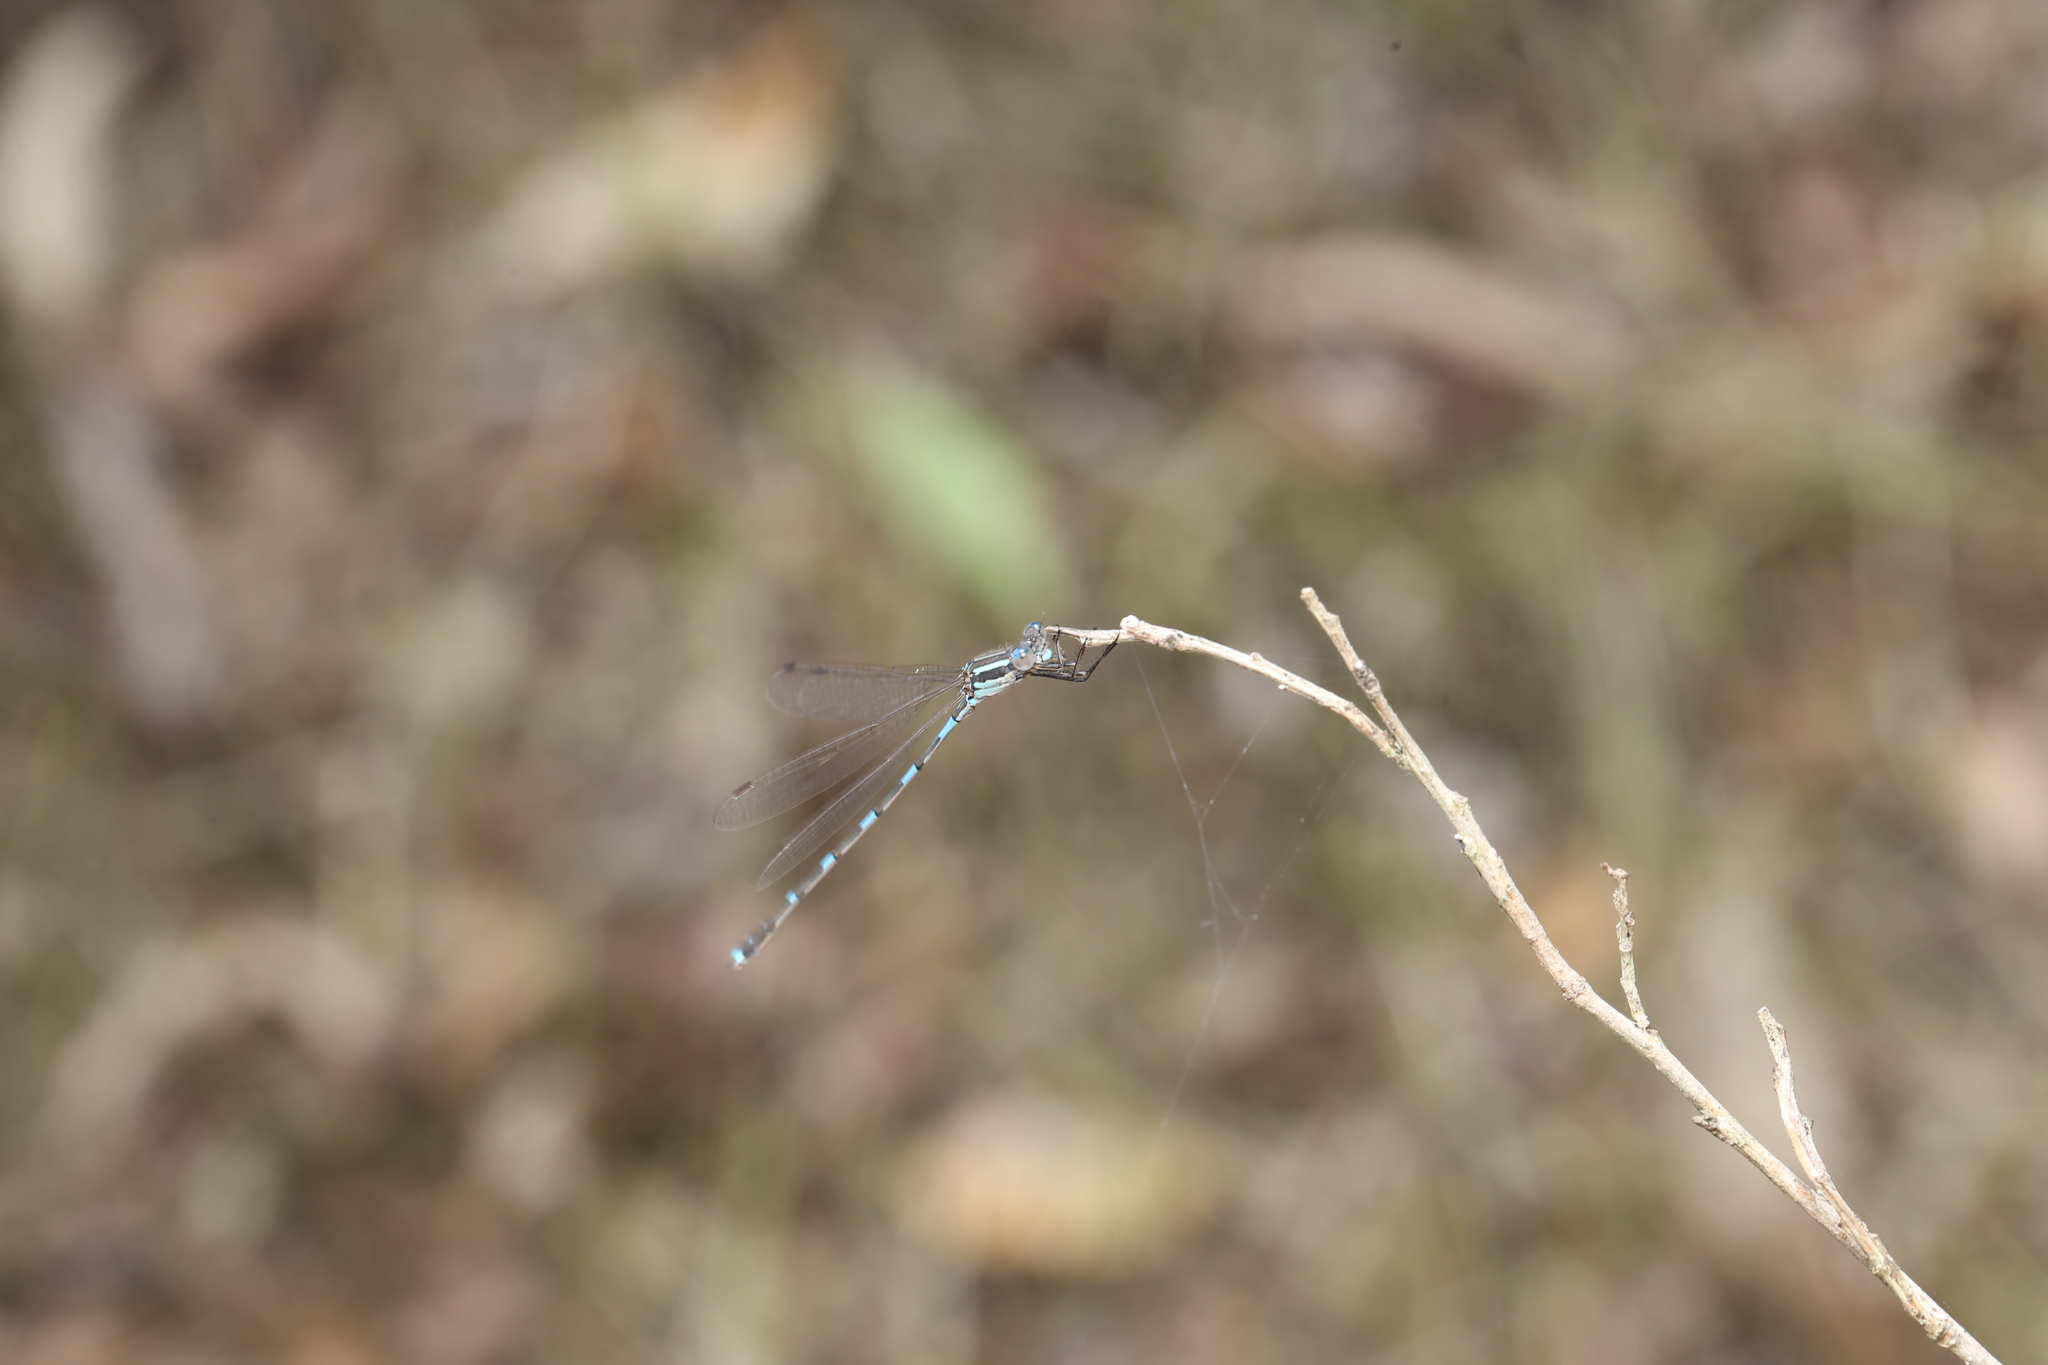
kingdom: Animalia
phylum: Arthropoda
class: Insecta
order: Odonata
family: Lestidae
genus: Austrolestes
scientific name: Austrolestes leda
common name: Wandering ringtail
